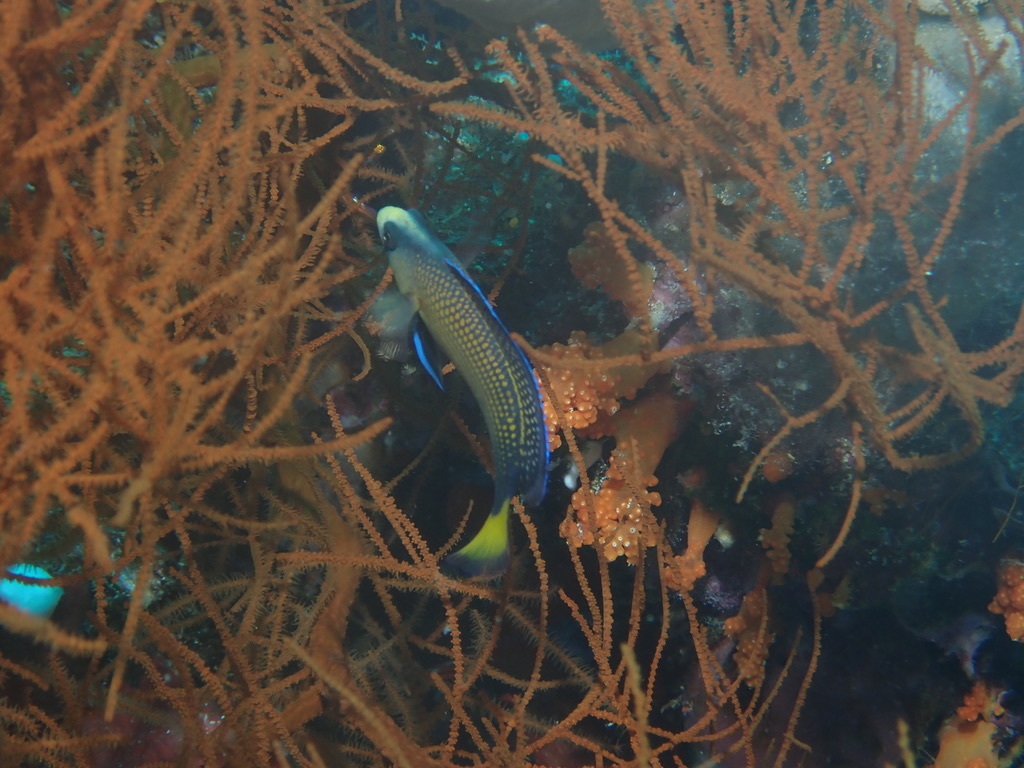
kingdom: Animalia
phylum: Chordata
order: Perciformes
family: Pseudochromidae
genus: Manonichthys
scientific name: Manonichthys splendens
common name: Splendid dottyback
